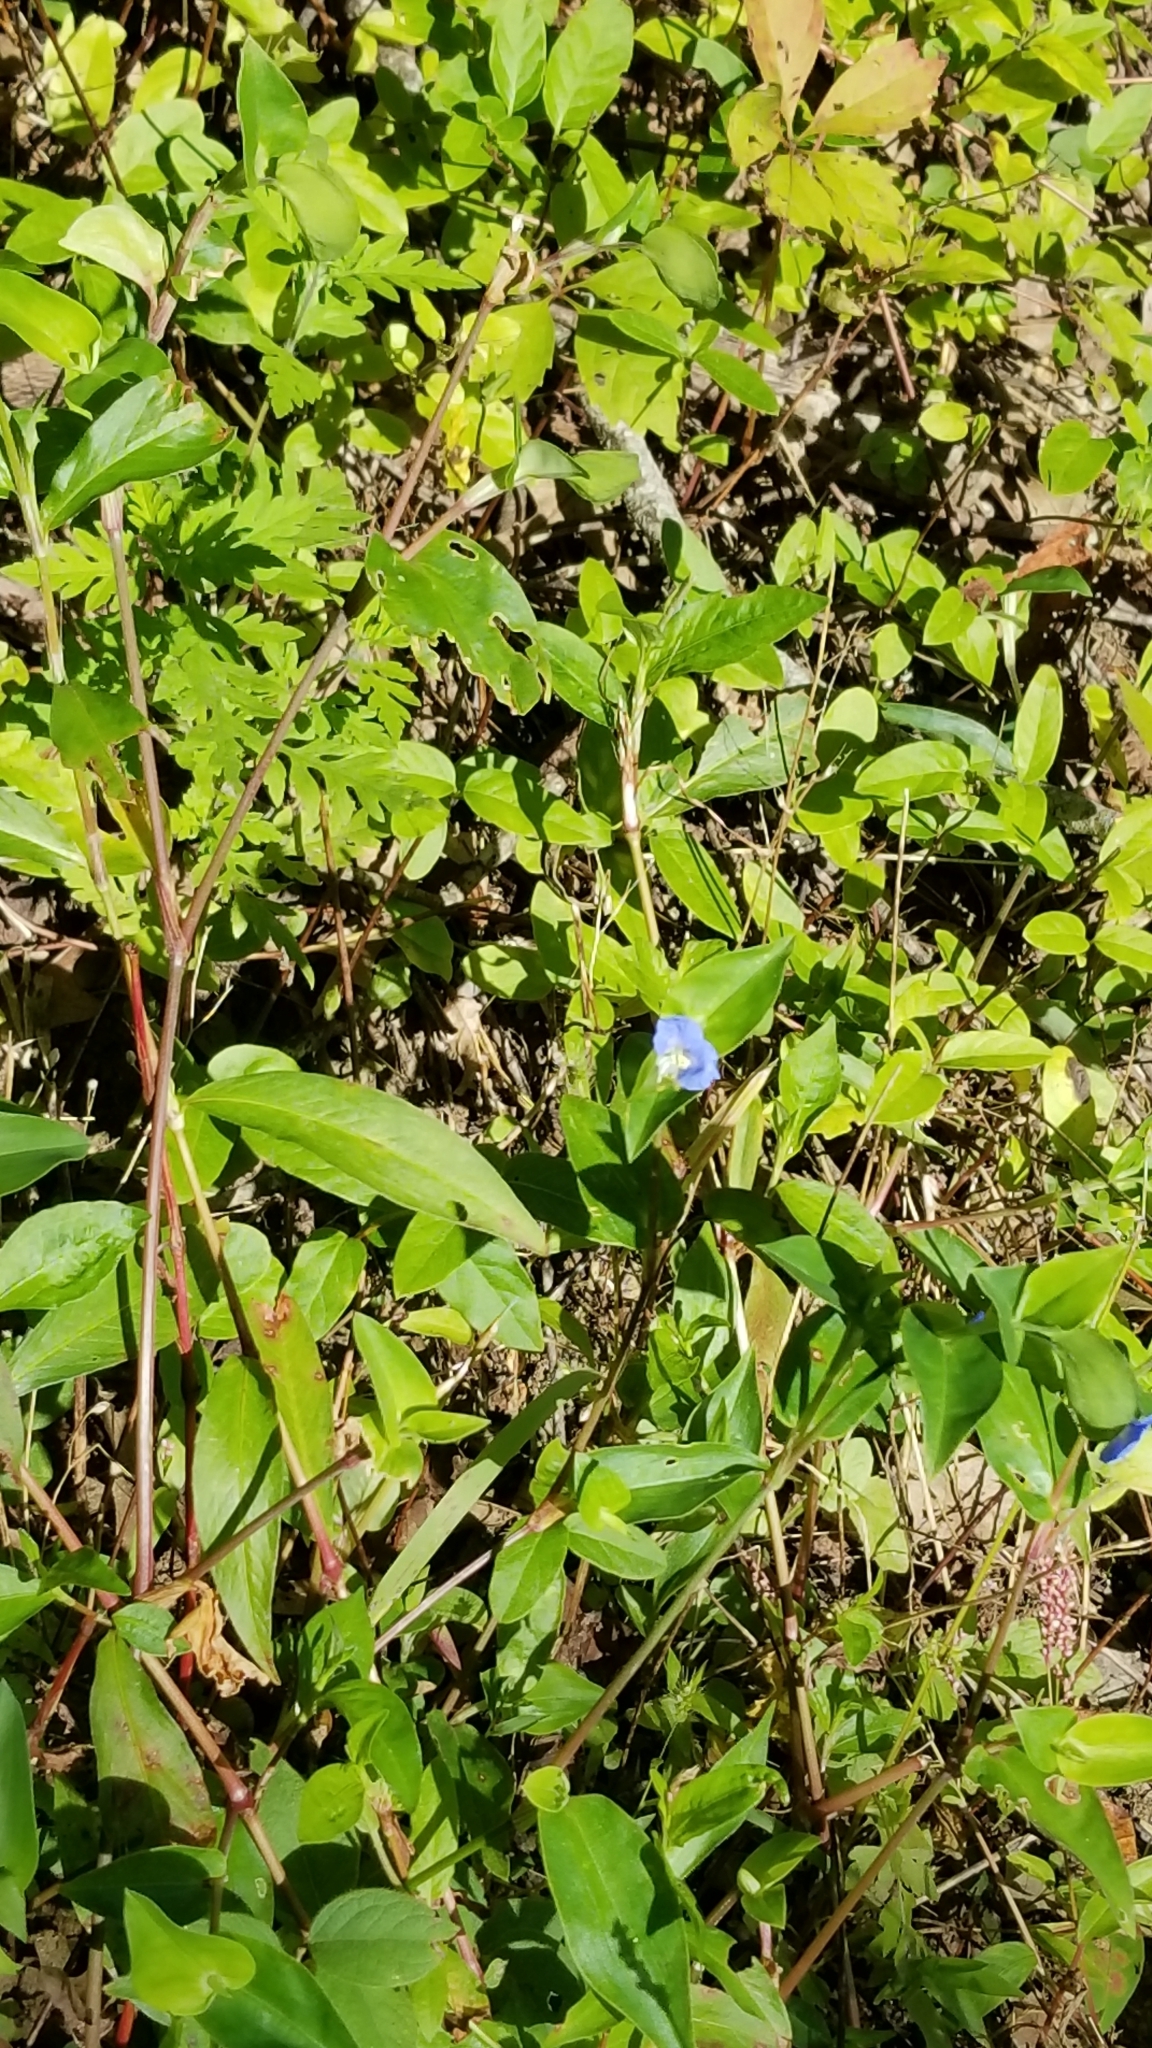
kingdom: Plantae
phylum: Tracheophyta
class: Liliopsida
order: Commelinales
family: Commelinaceae
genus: Commelina
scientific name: Commelina communis
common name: Asiatic dayflower
